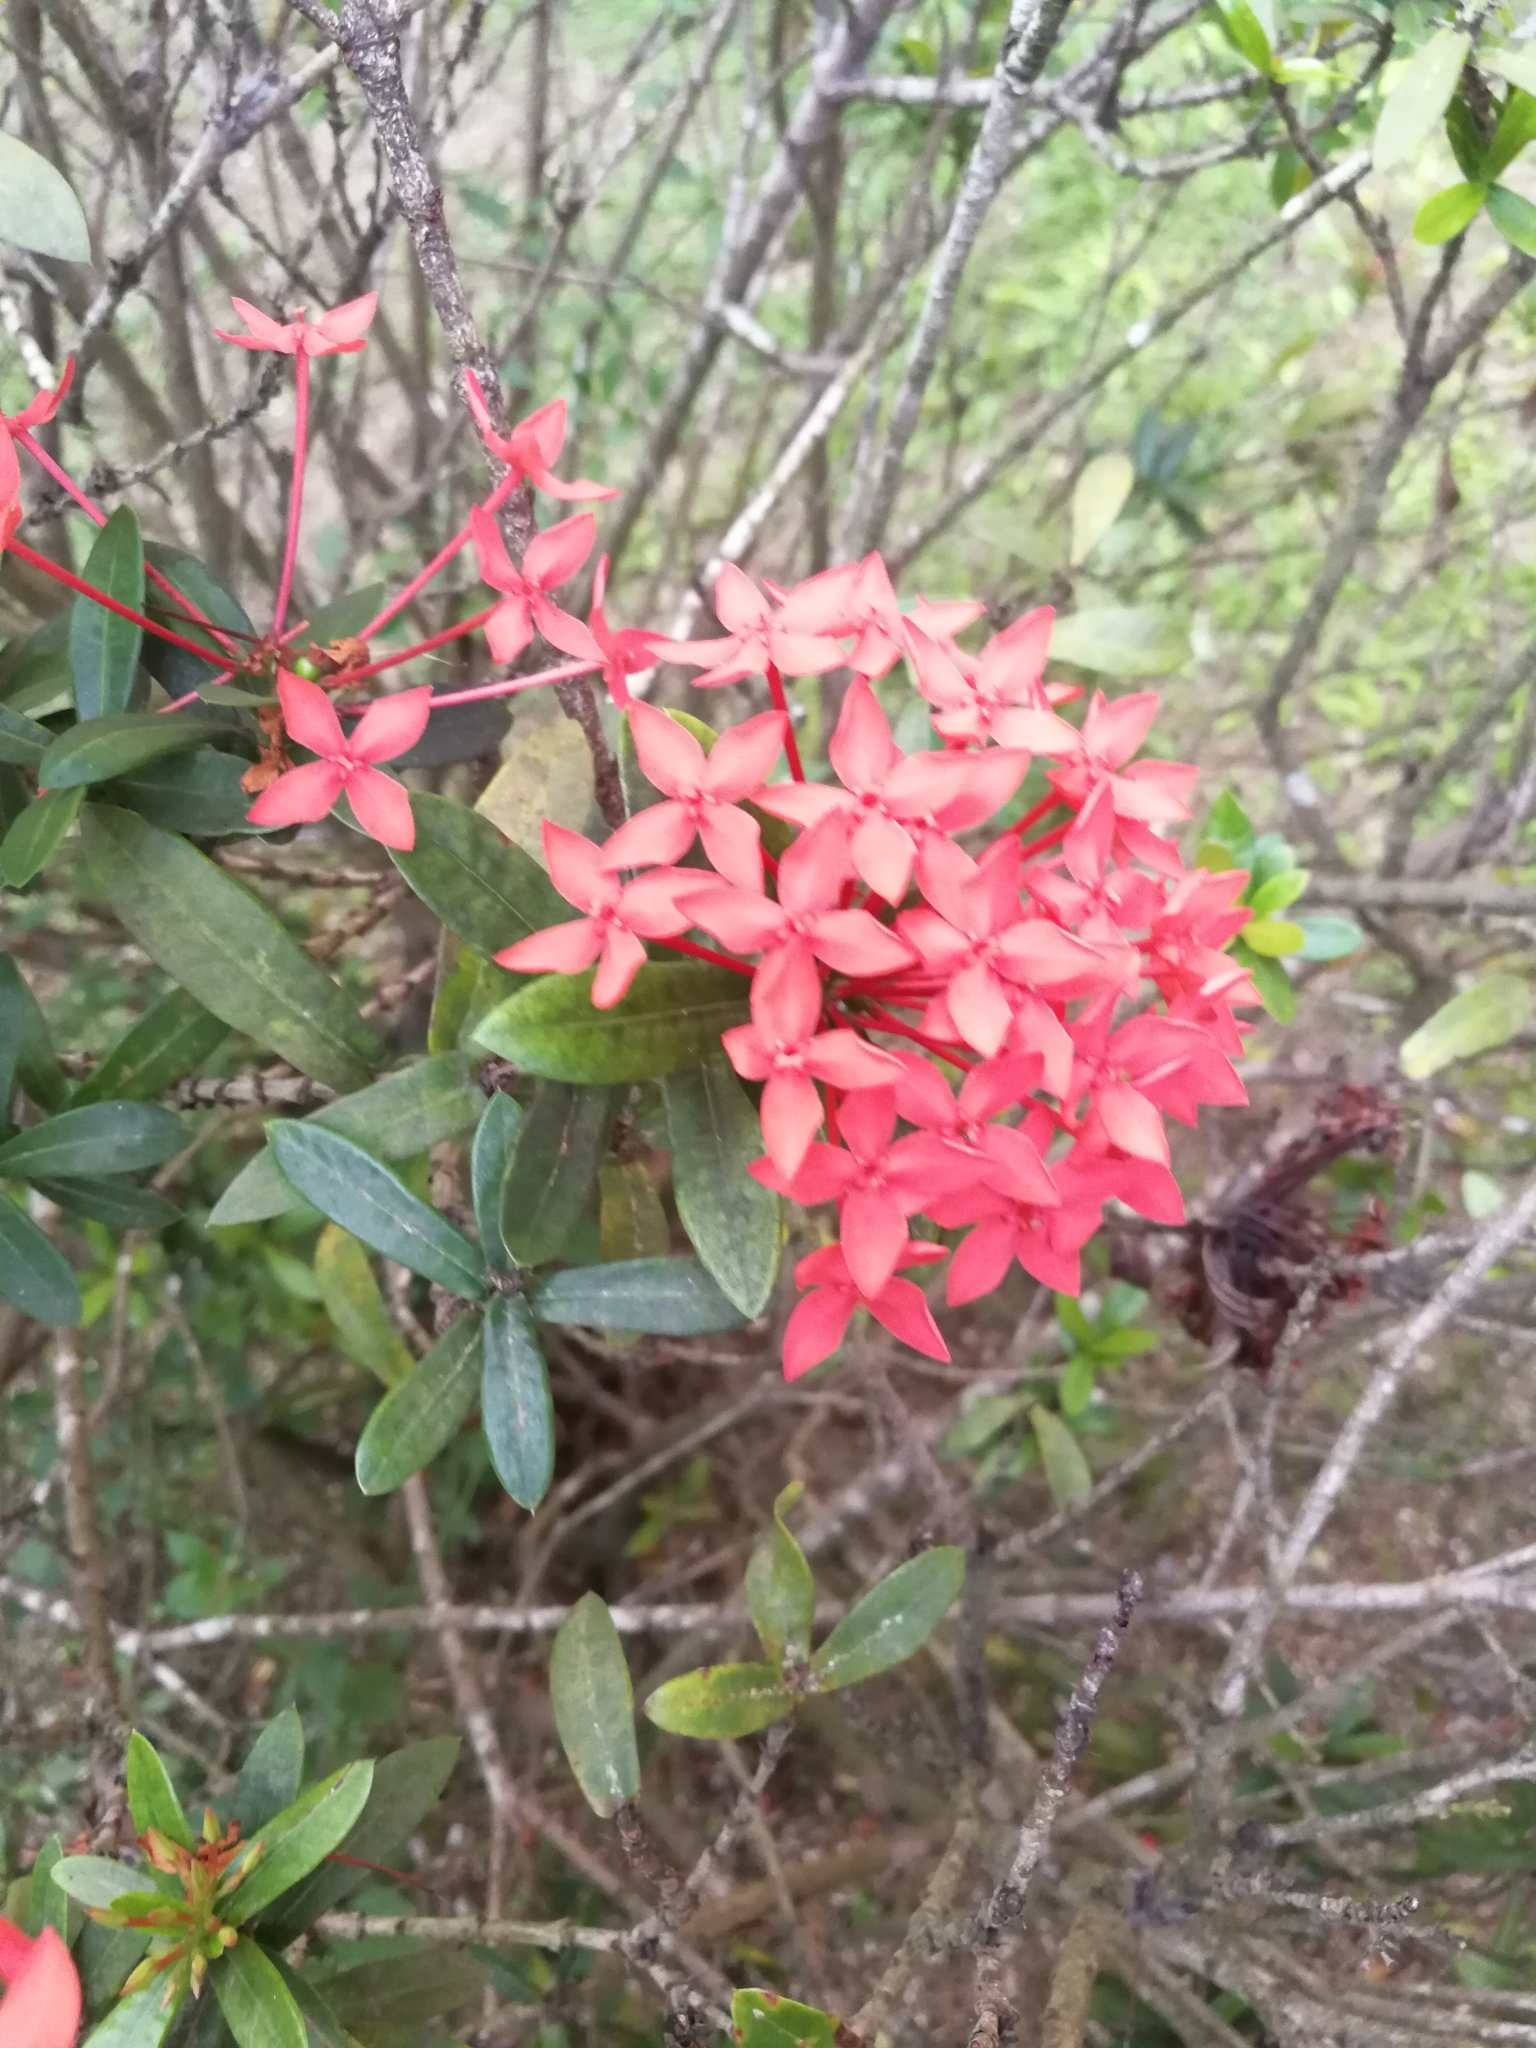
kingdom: Plantae
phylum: Tracheophyta
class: Magnoliopsida
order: Gentianales
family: Rubiaceae
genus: Ixora
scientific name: Ixora coccinea
